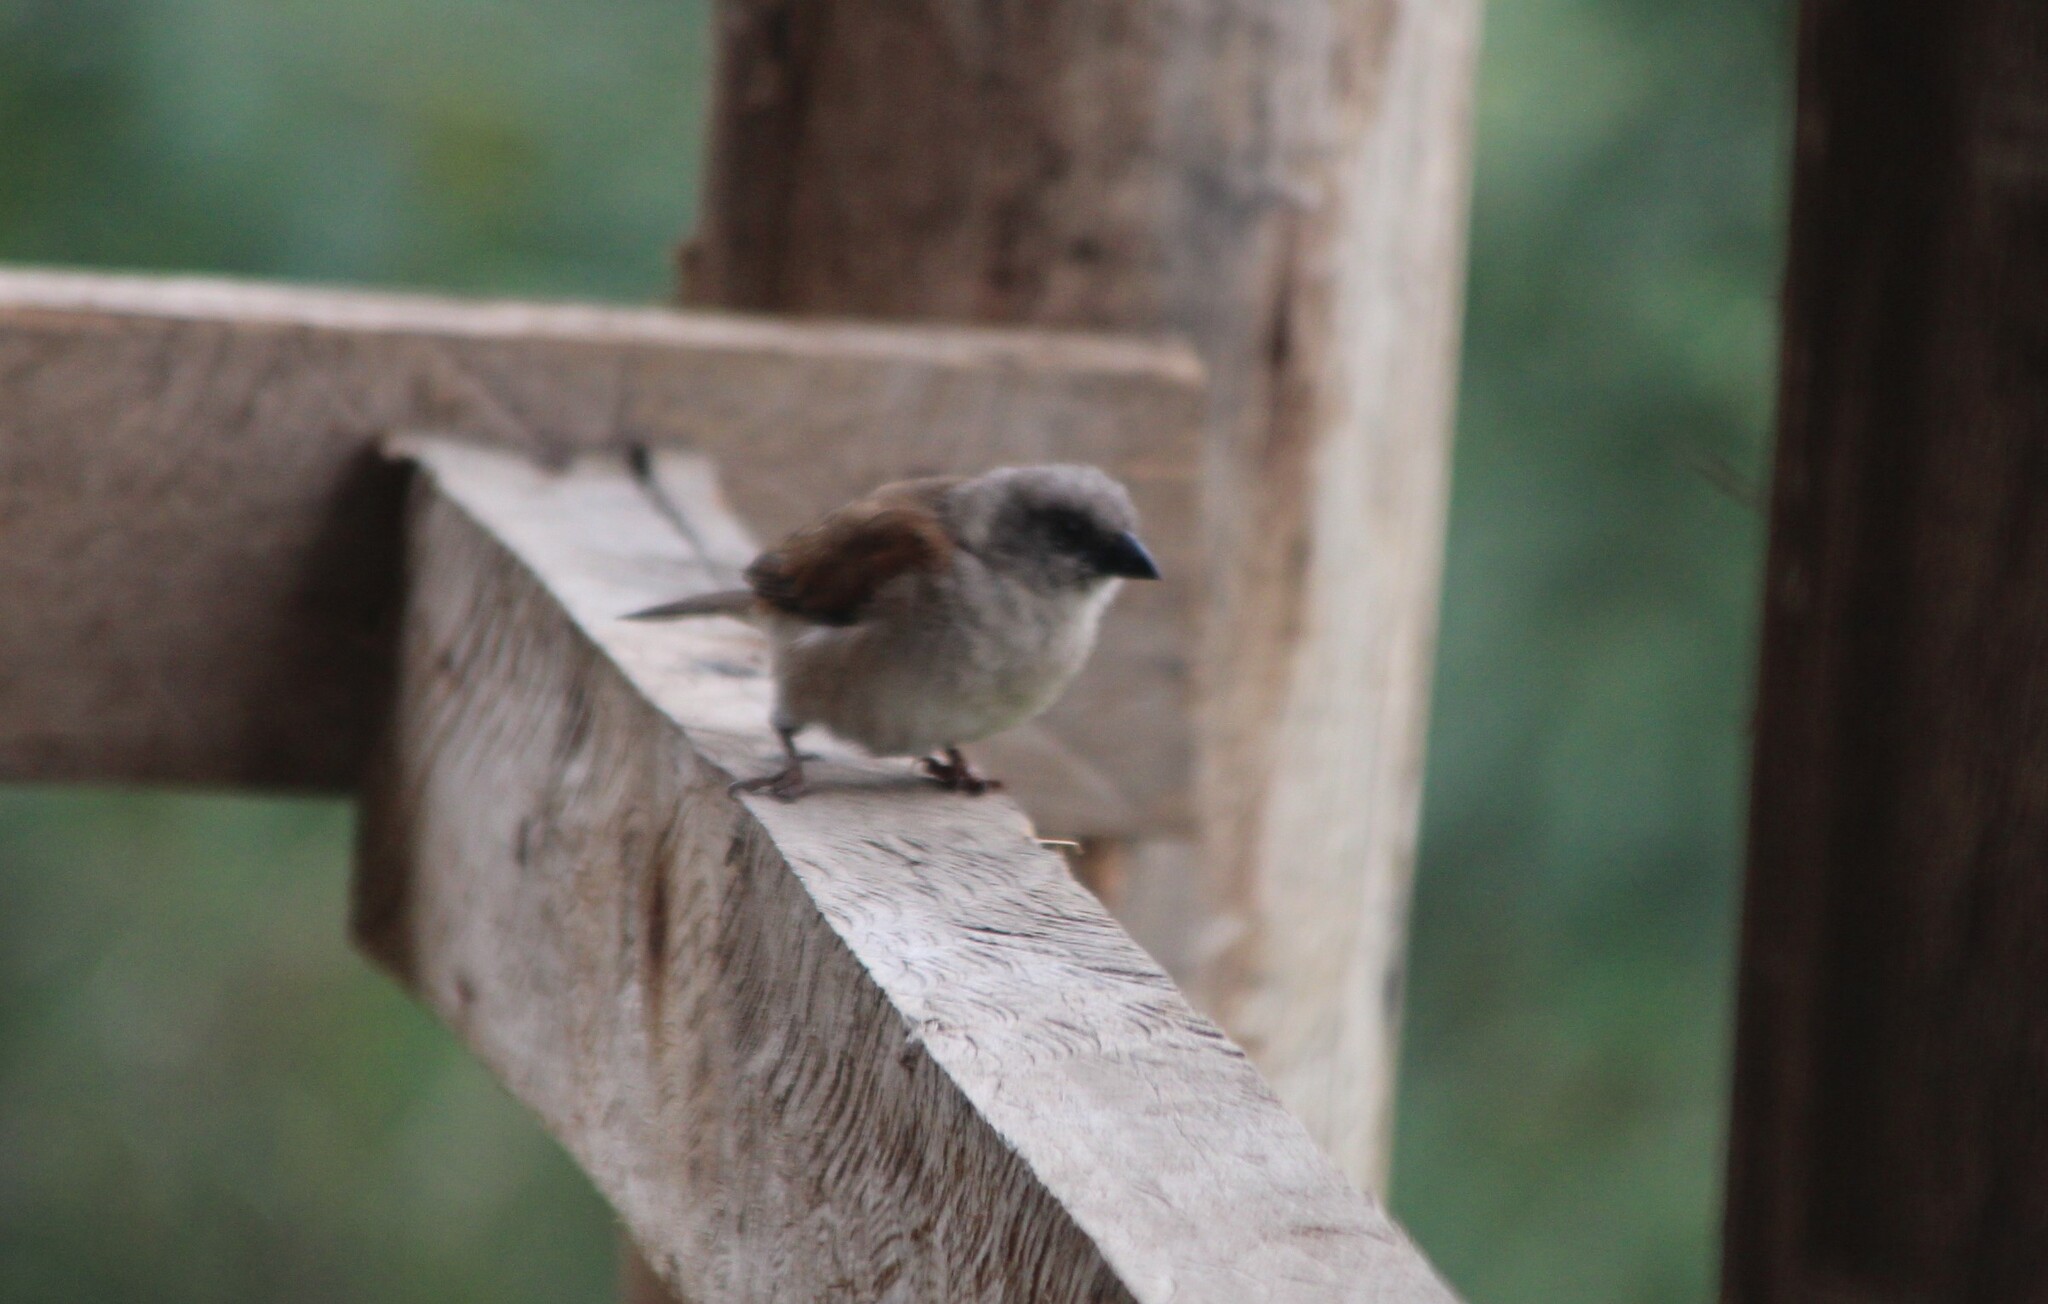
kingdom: Animalia
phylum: Chordata
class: Aves
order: Passeriformes
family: Passeridae
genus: Passer
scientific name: Passer griseus
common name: Northern grey-headed sparrow
